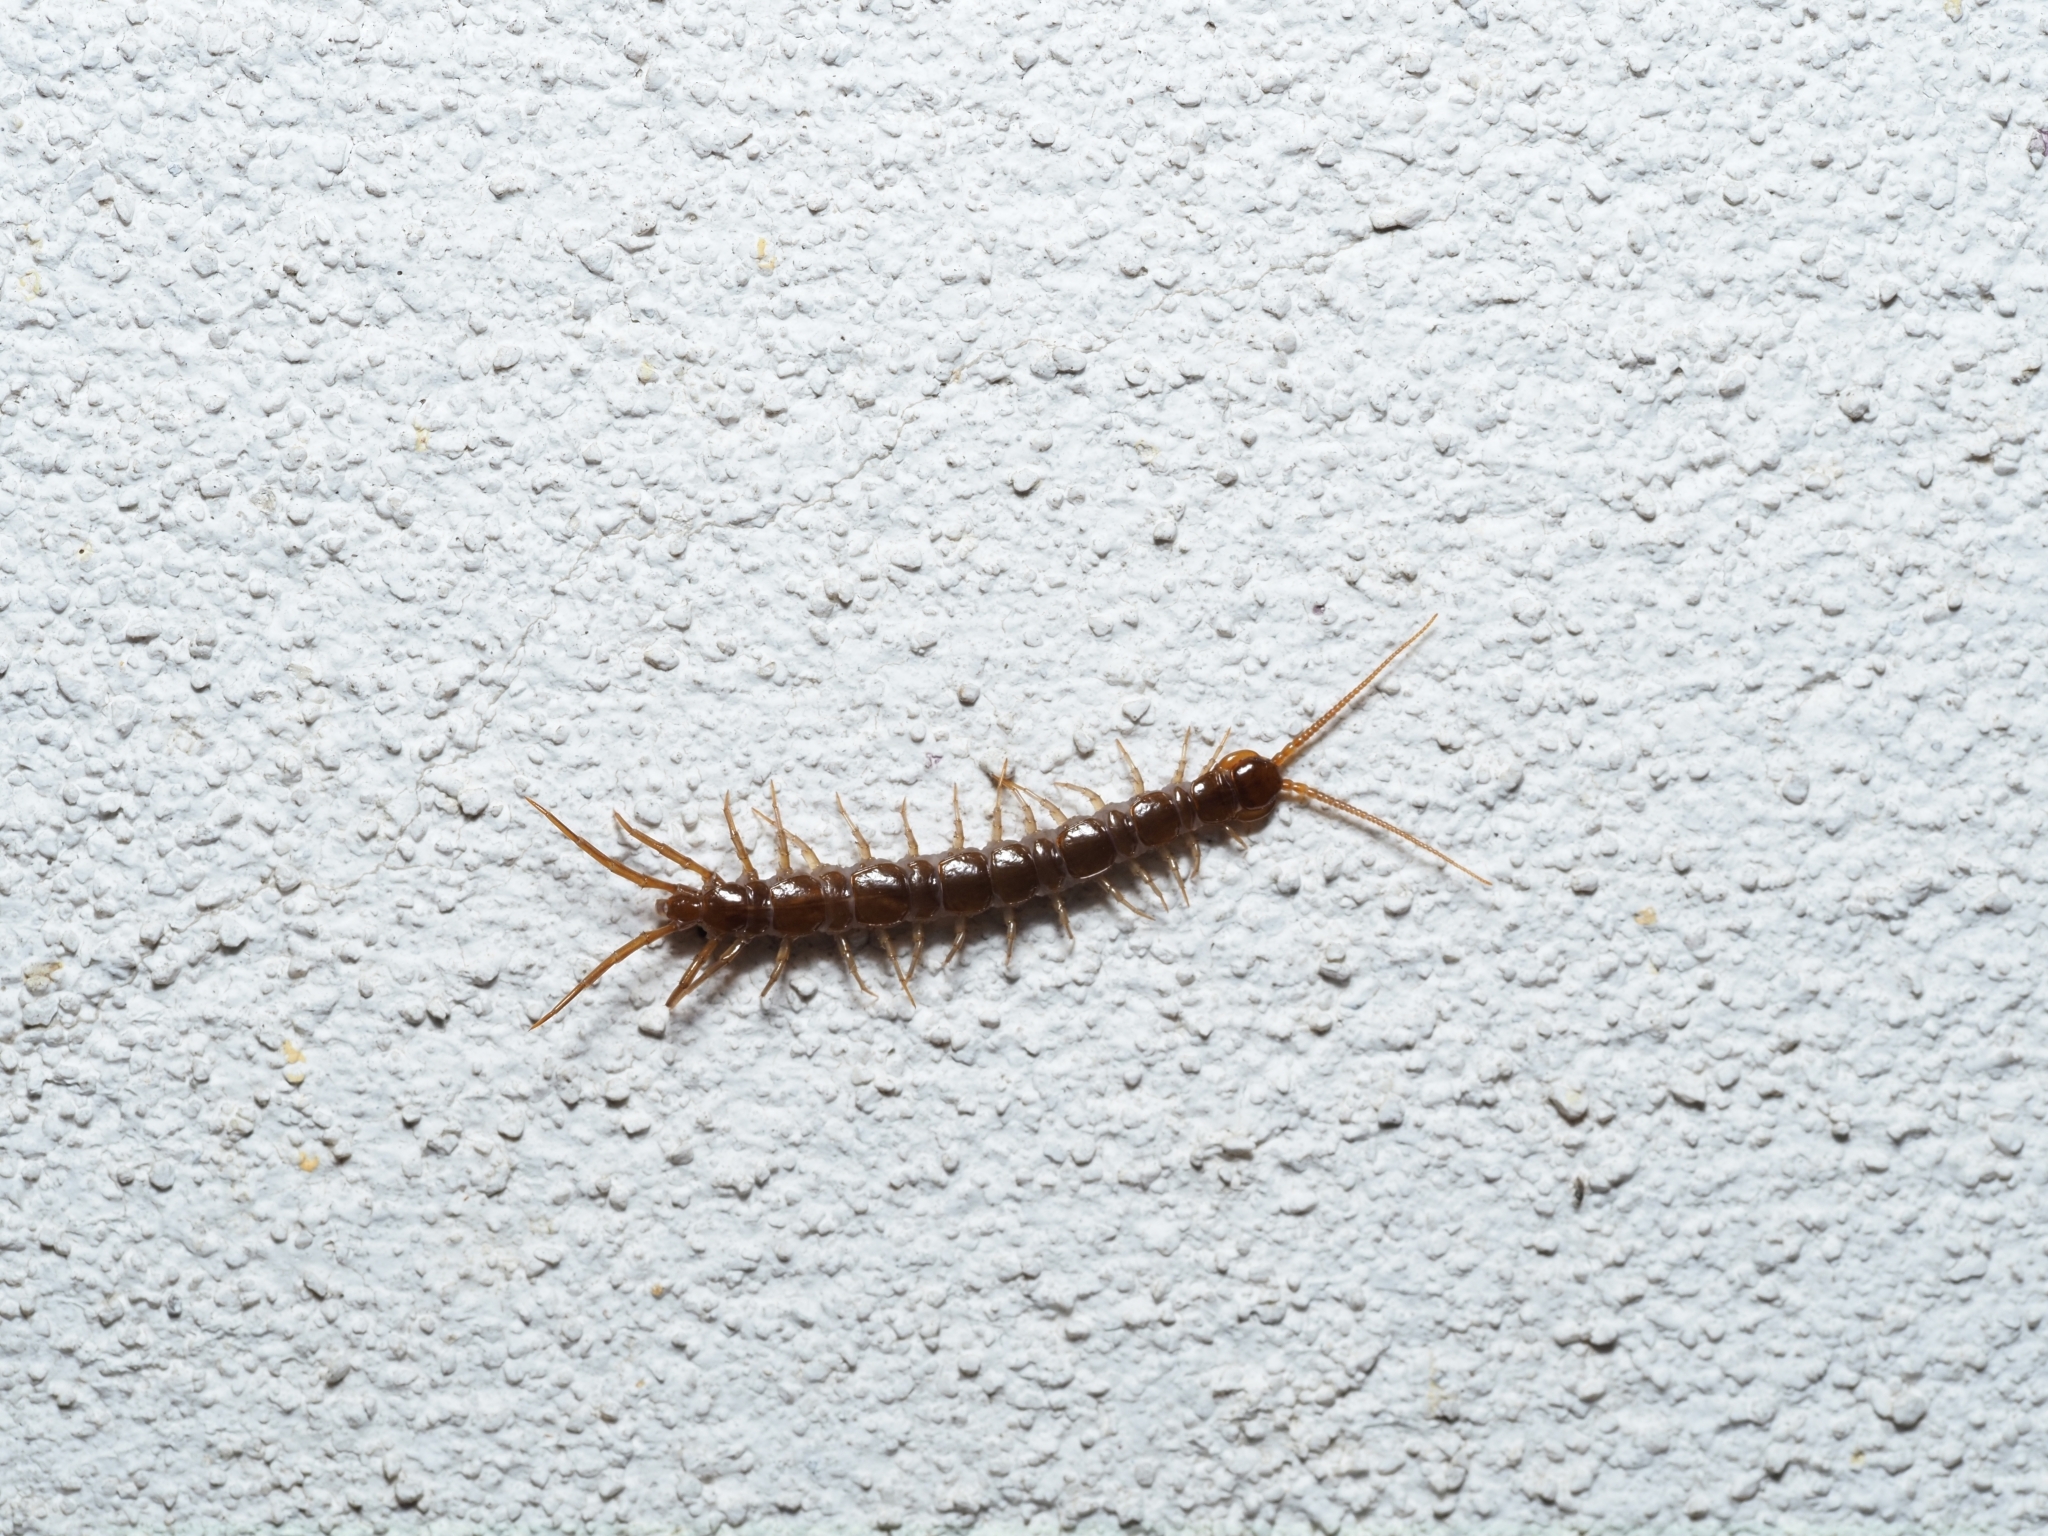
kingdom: Animalia
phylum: Arthropoda
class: Chilopoda
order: Lithobiomorpha
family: Lithobiidae
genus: Lithobius
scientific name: Lithobius forficatus
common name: Centipede
